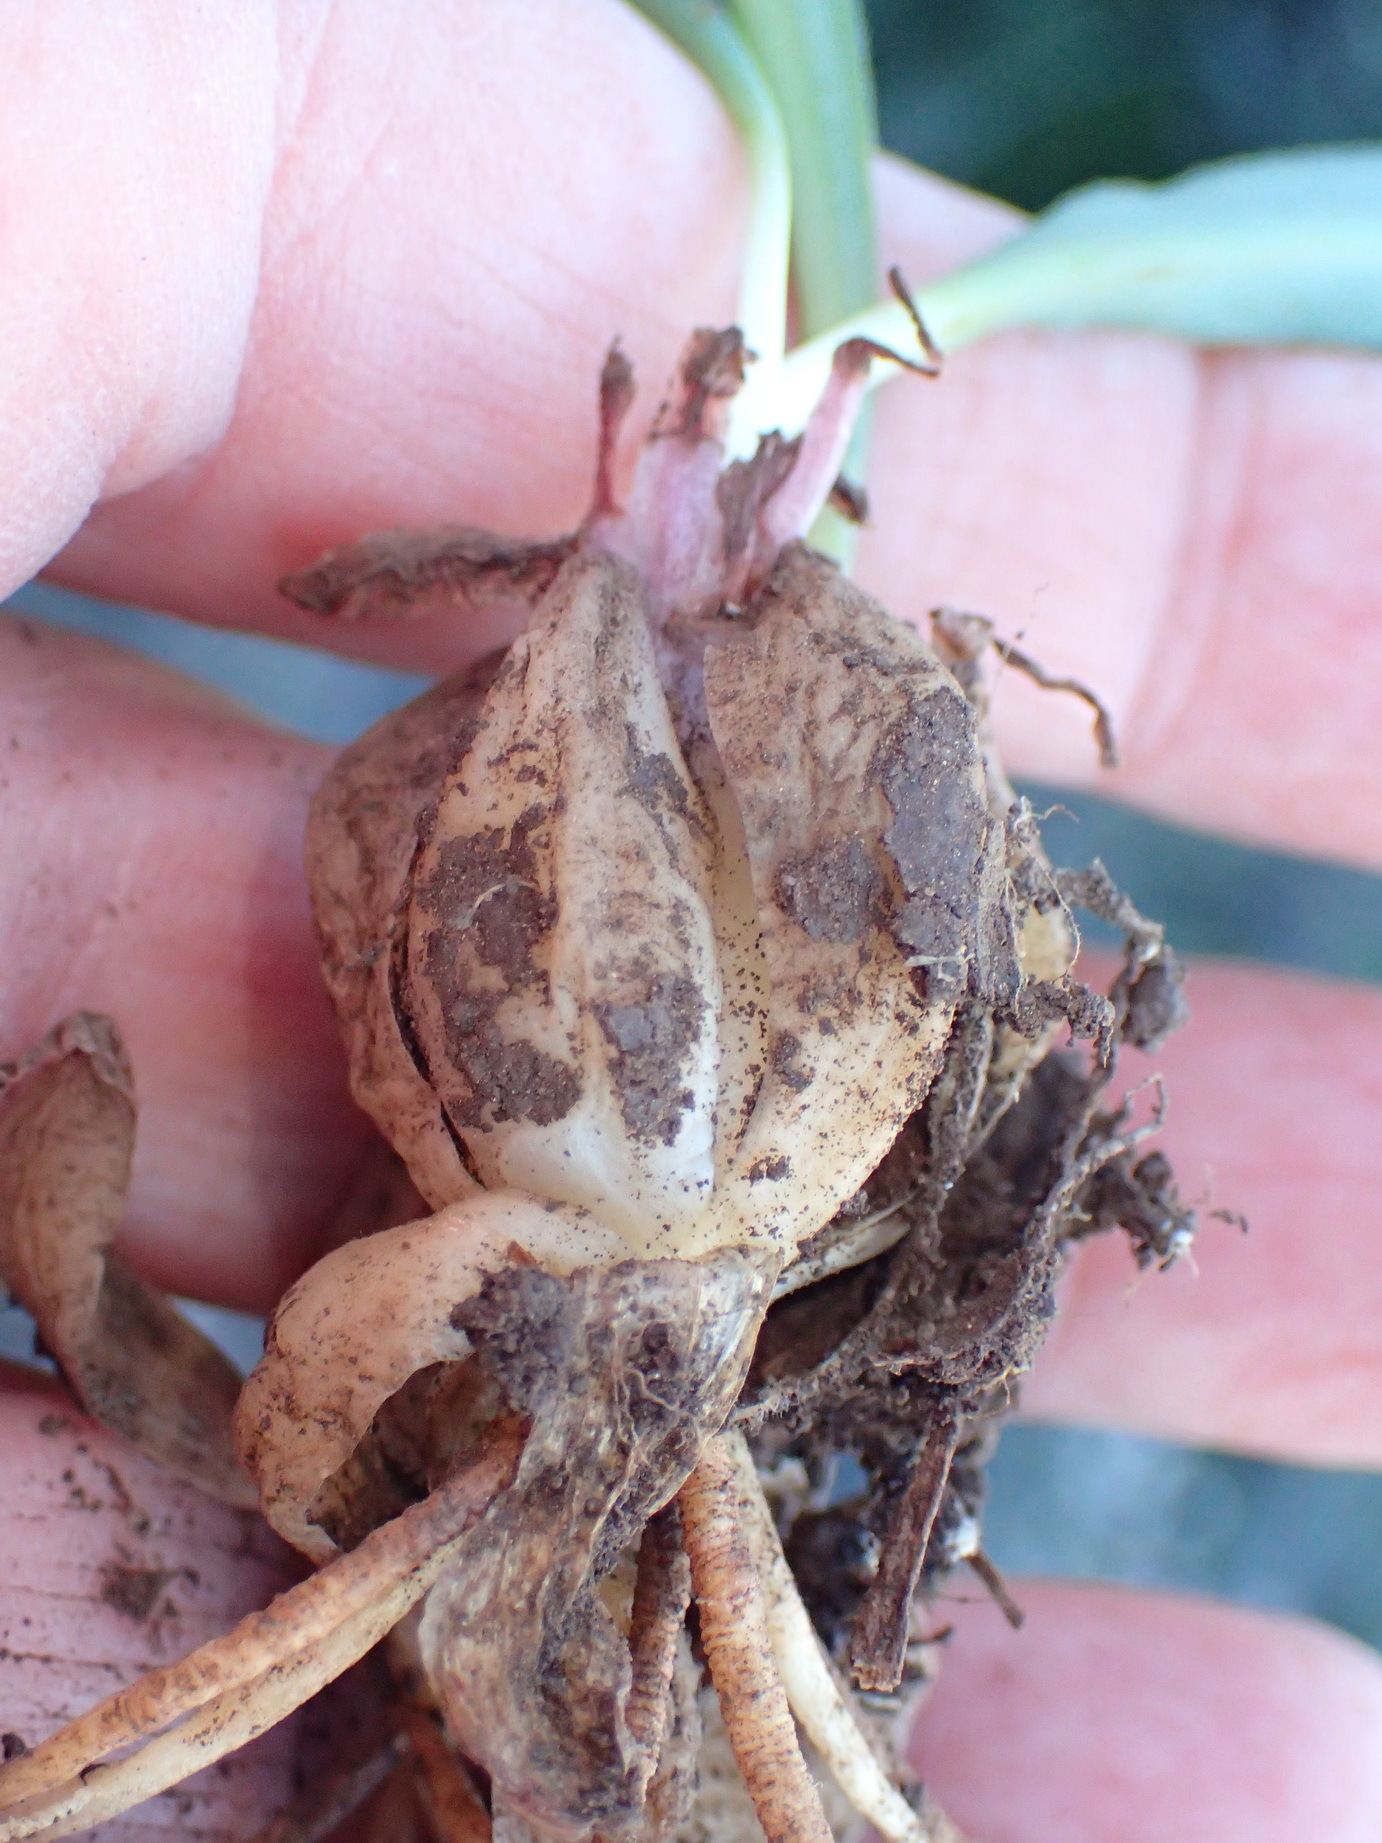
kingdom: Plantae
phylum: Tracheophyta
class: Liliopsida
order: Asparagales
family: Asparagaceae
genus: Drimia
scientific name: Drimia haworthioides
